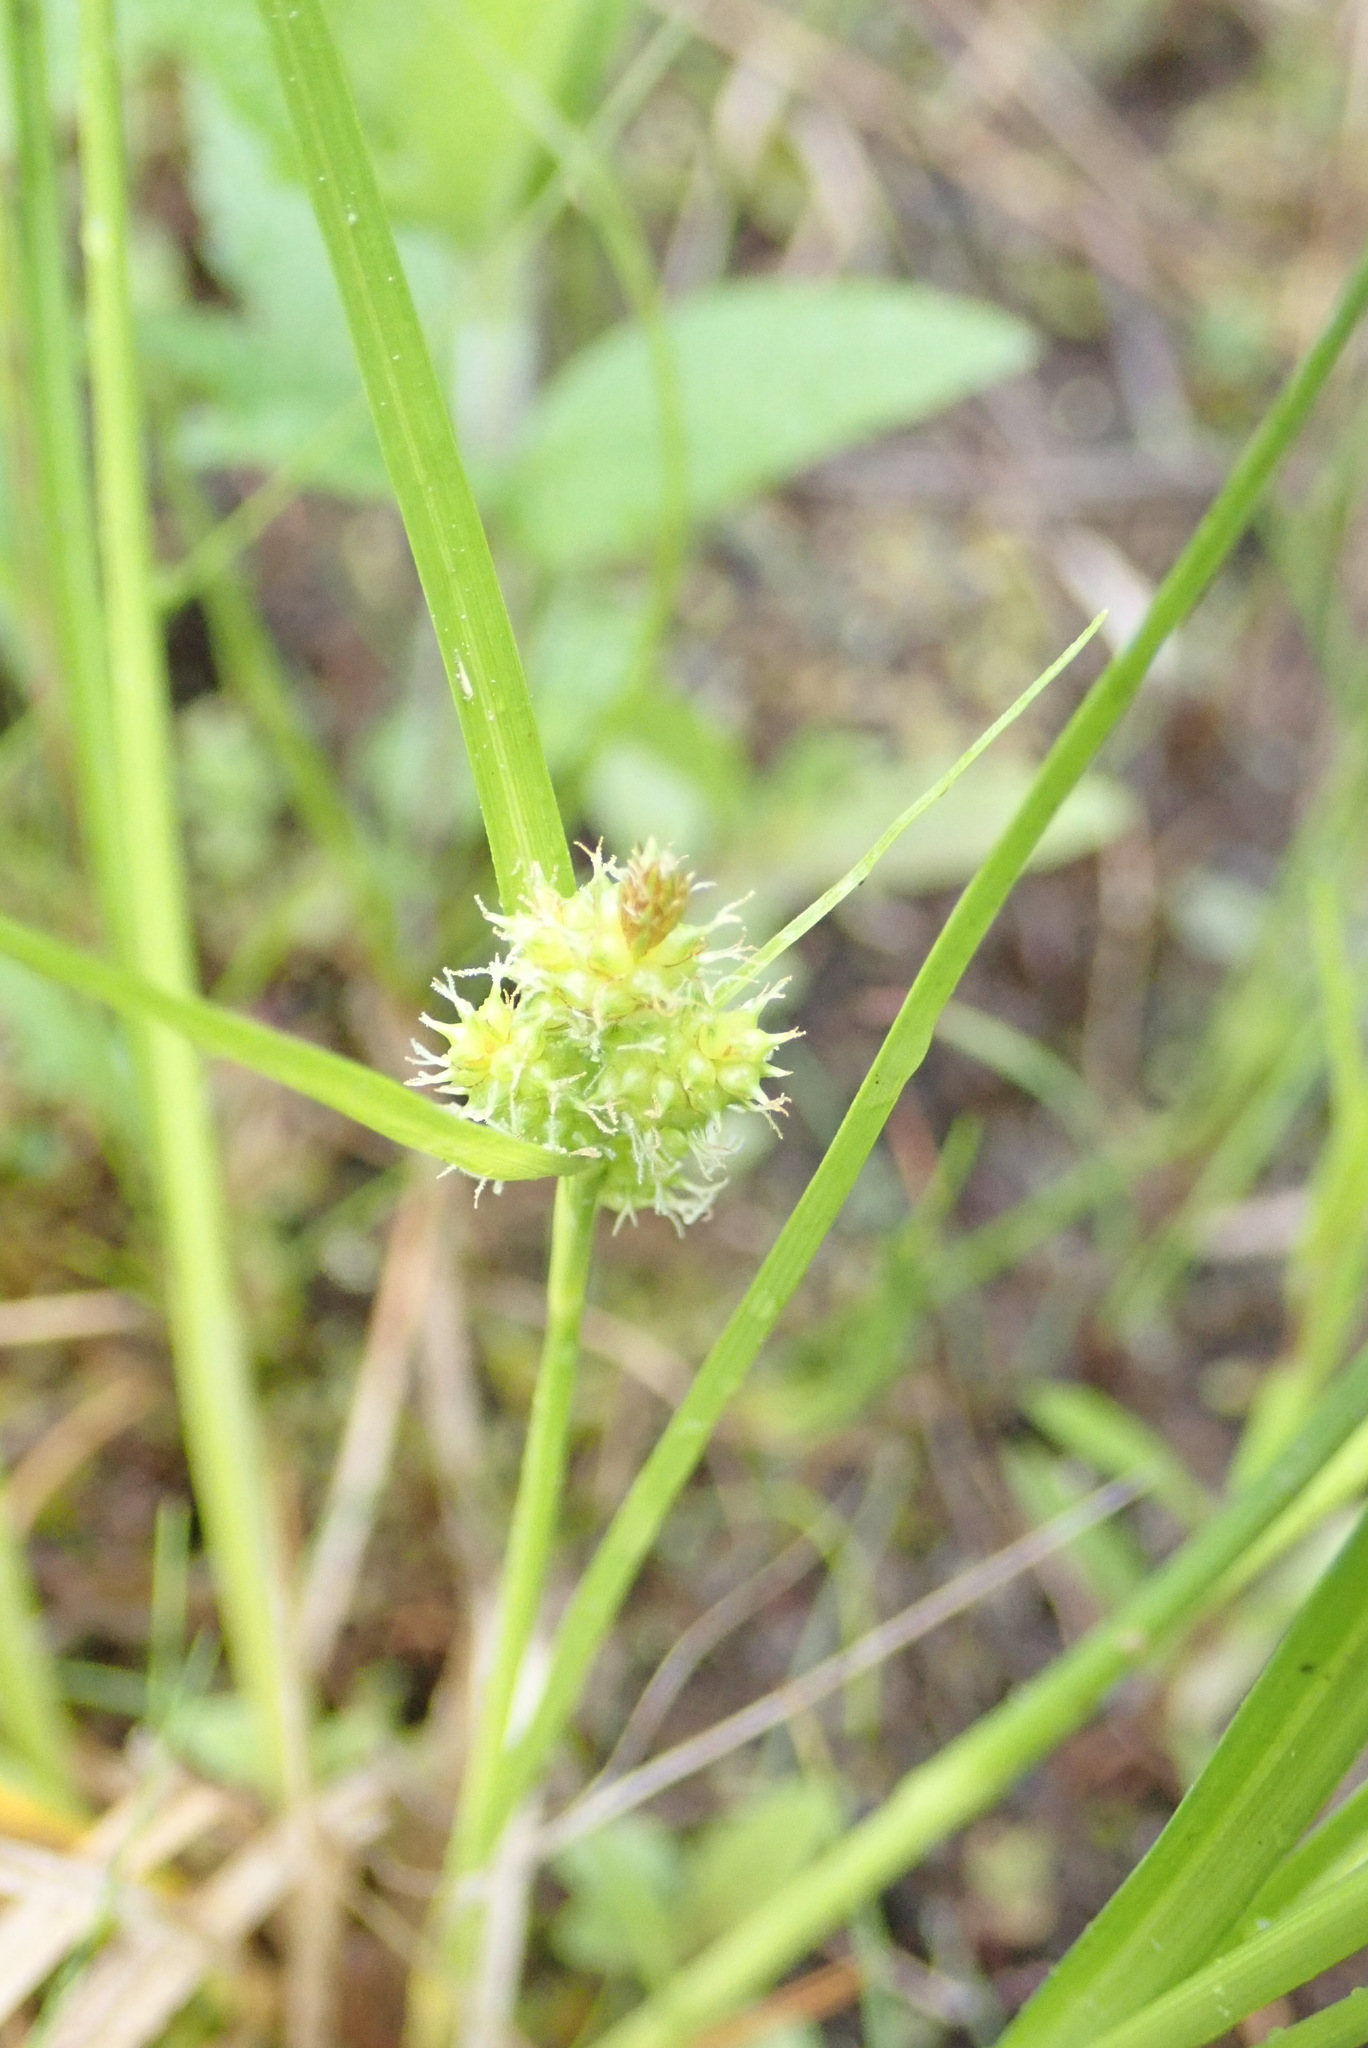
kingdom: Plantae
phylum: Tracheophyta
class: Liliopsida
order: Poales
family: Cyperaceae
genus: Carex
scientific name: Carex
